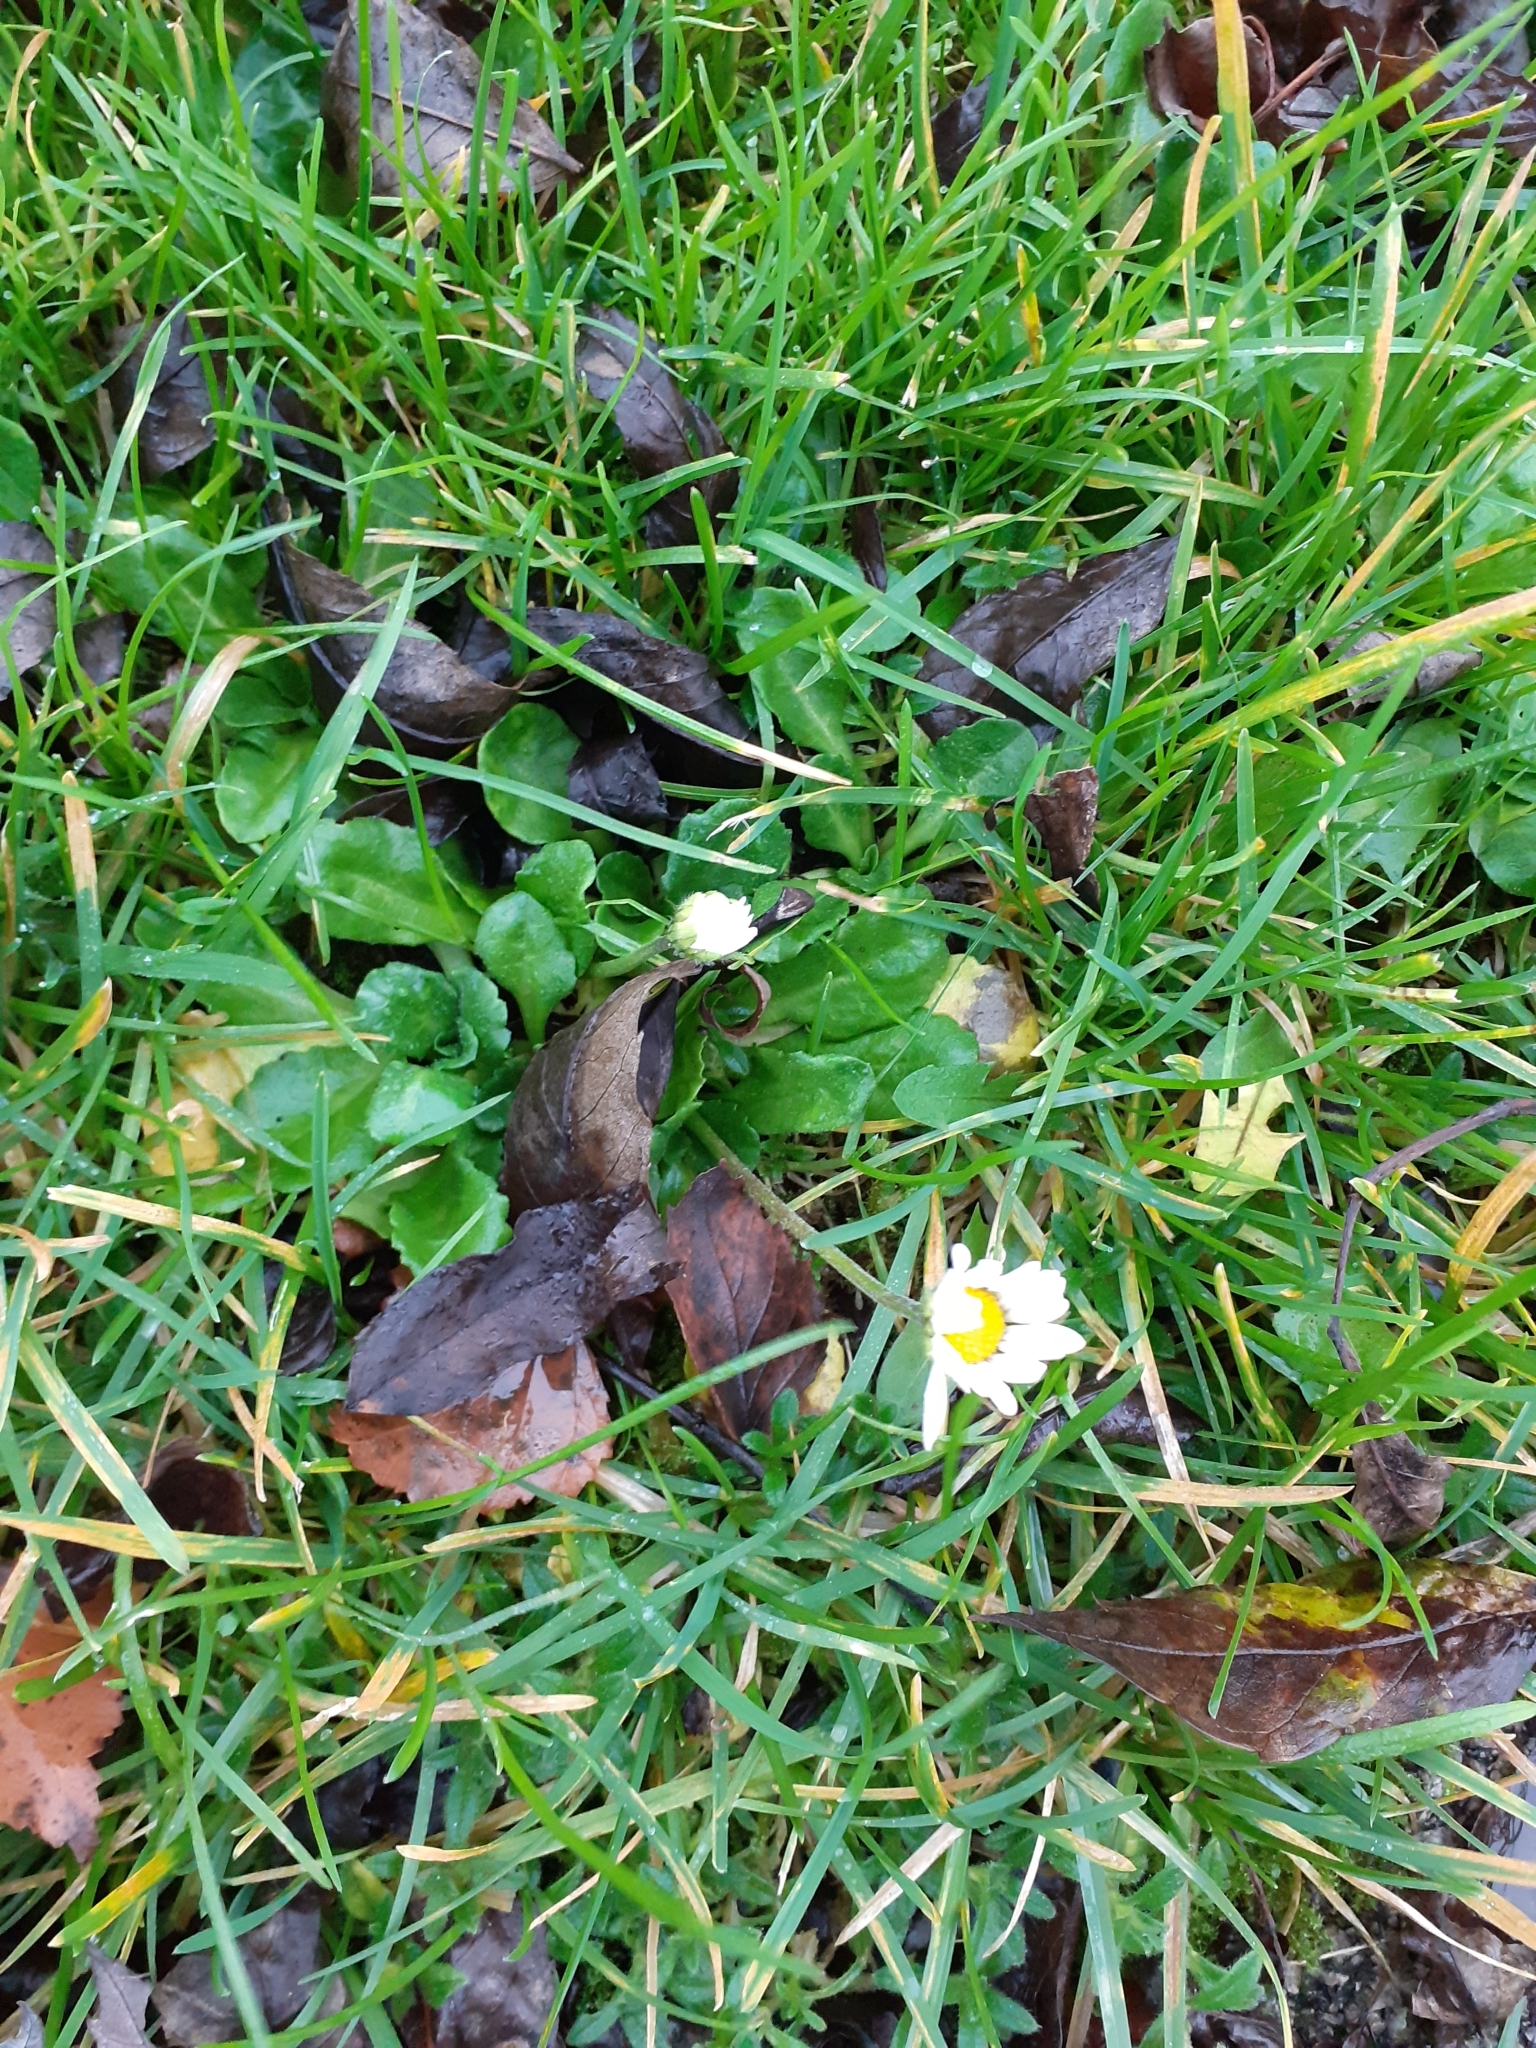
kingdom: Plantae
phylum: Tracheophyta
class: Magnoliopsida
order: Asterales
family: Asteraceae
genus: Bellis
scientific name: Bellis perennis
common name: Lawndaisy
